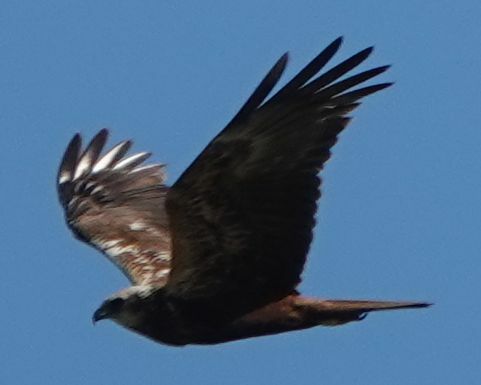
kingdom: Animalia
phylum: Chordata
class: Aves
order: Accipitriformes
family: Accipitridae
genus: Circus
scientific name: Circus aeruginosus
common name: Western marsh harrier
